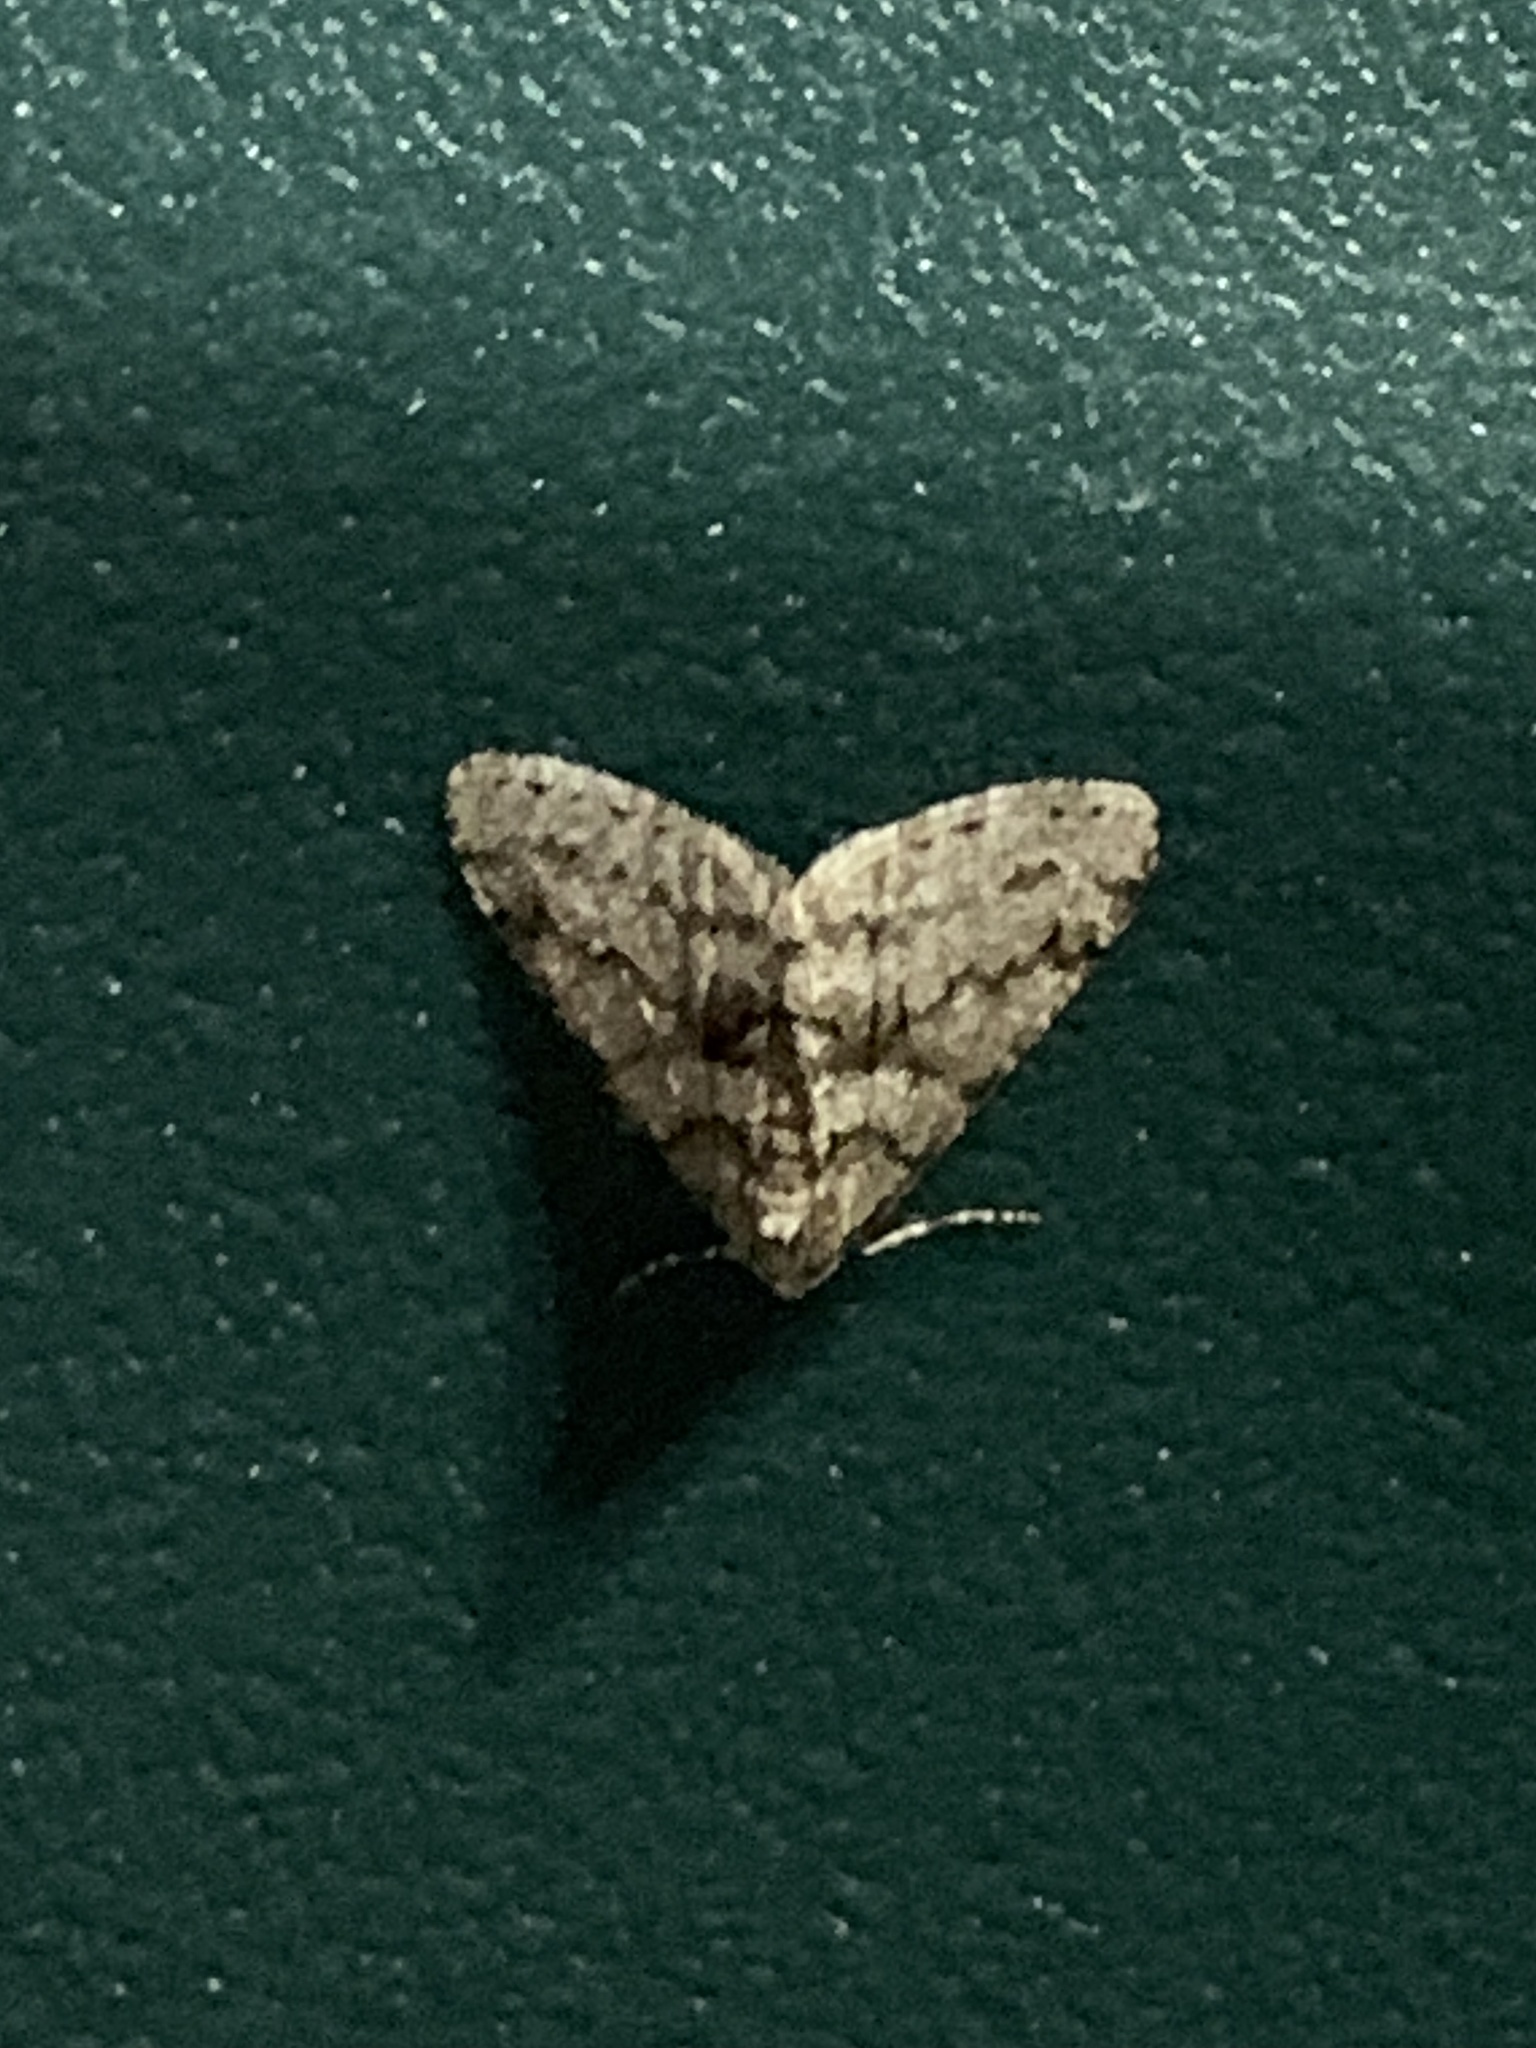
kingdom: Animalia
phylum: Arthropoda
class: Insecta
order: Lepidoptera
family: Geometridae
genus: Phigalia
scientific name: Phigalia denticulata
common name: Toothed phigalia
